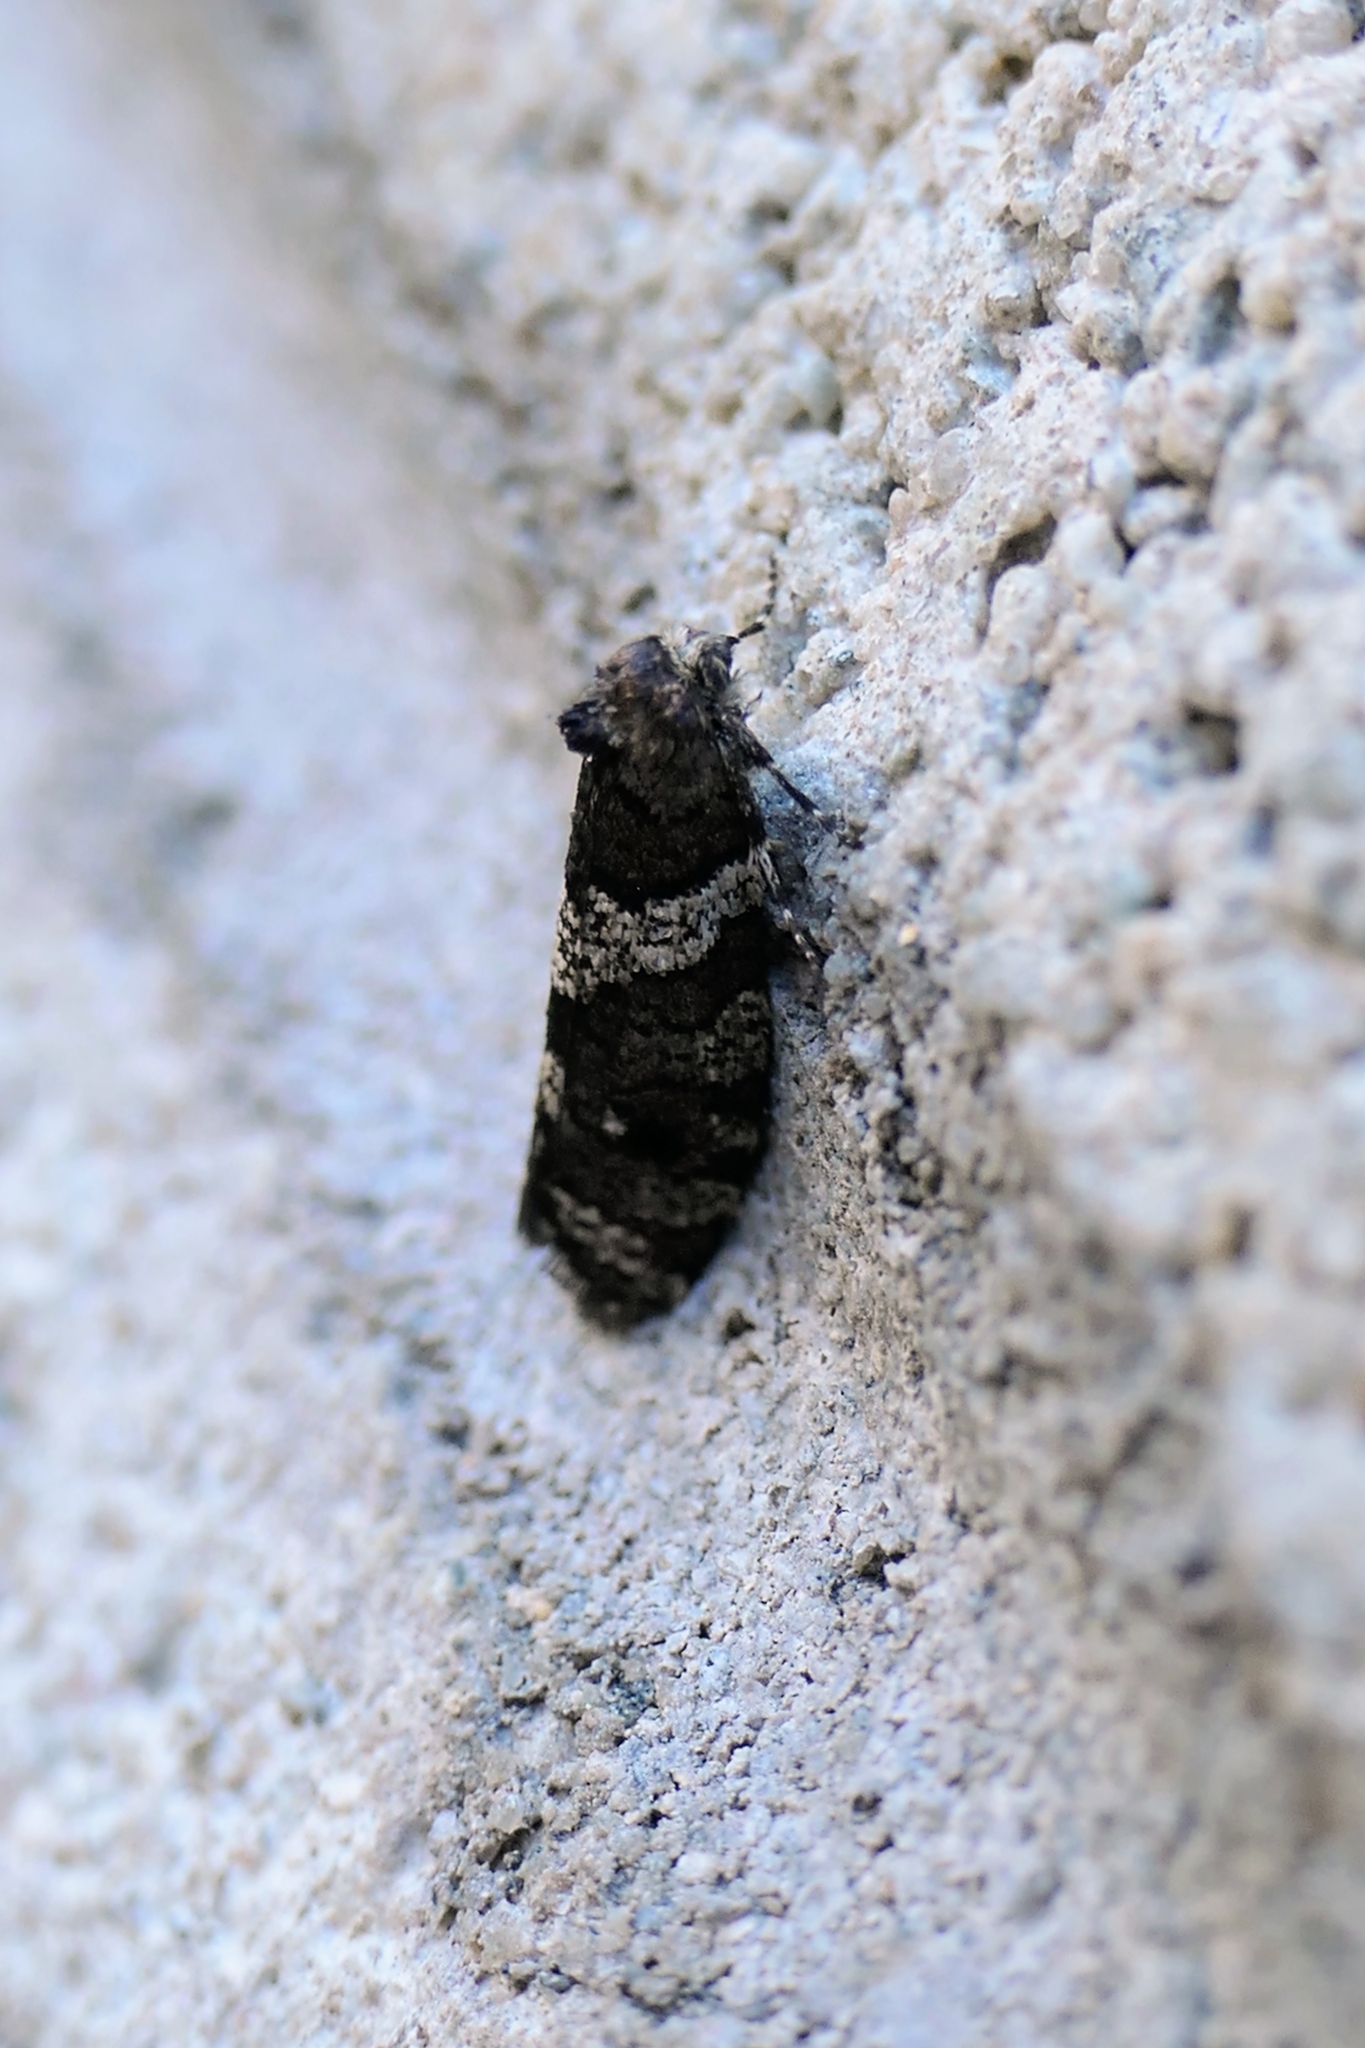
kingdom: Animalia
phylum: Arthropoda
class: Insecta
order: Lepidoptera
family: Psychidae
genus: Lepidoscia
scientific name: Lepidoscia heliochares
